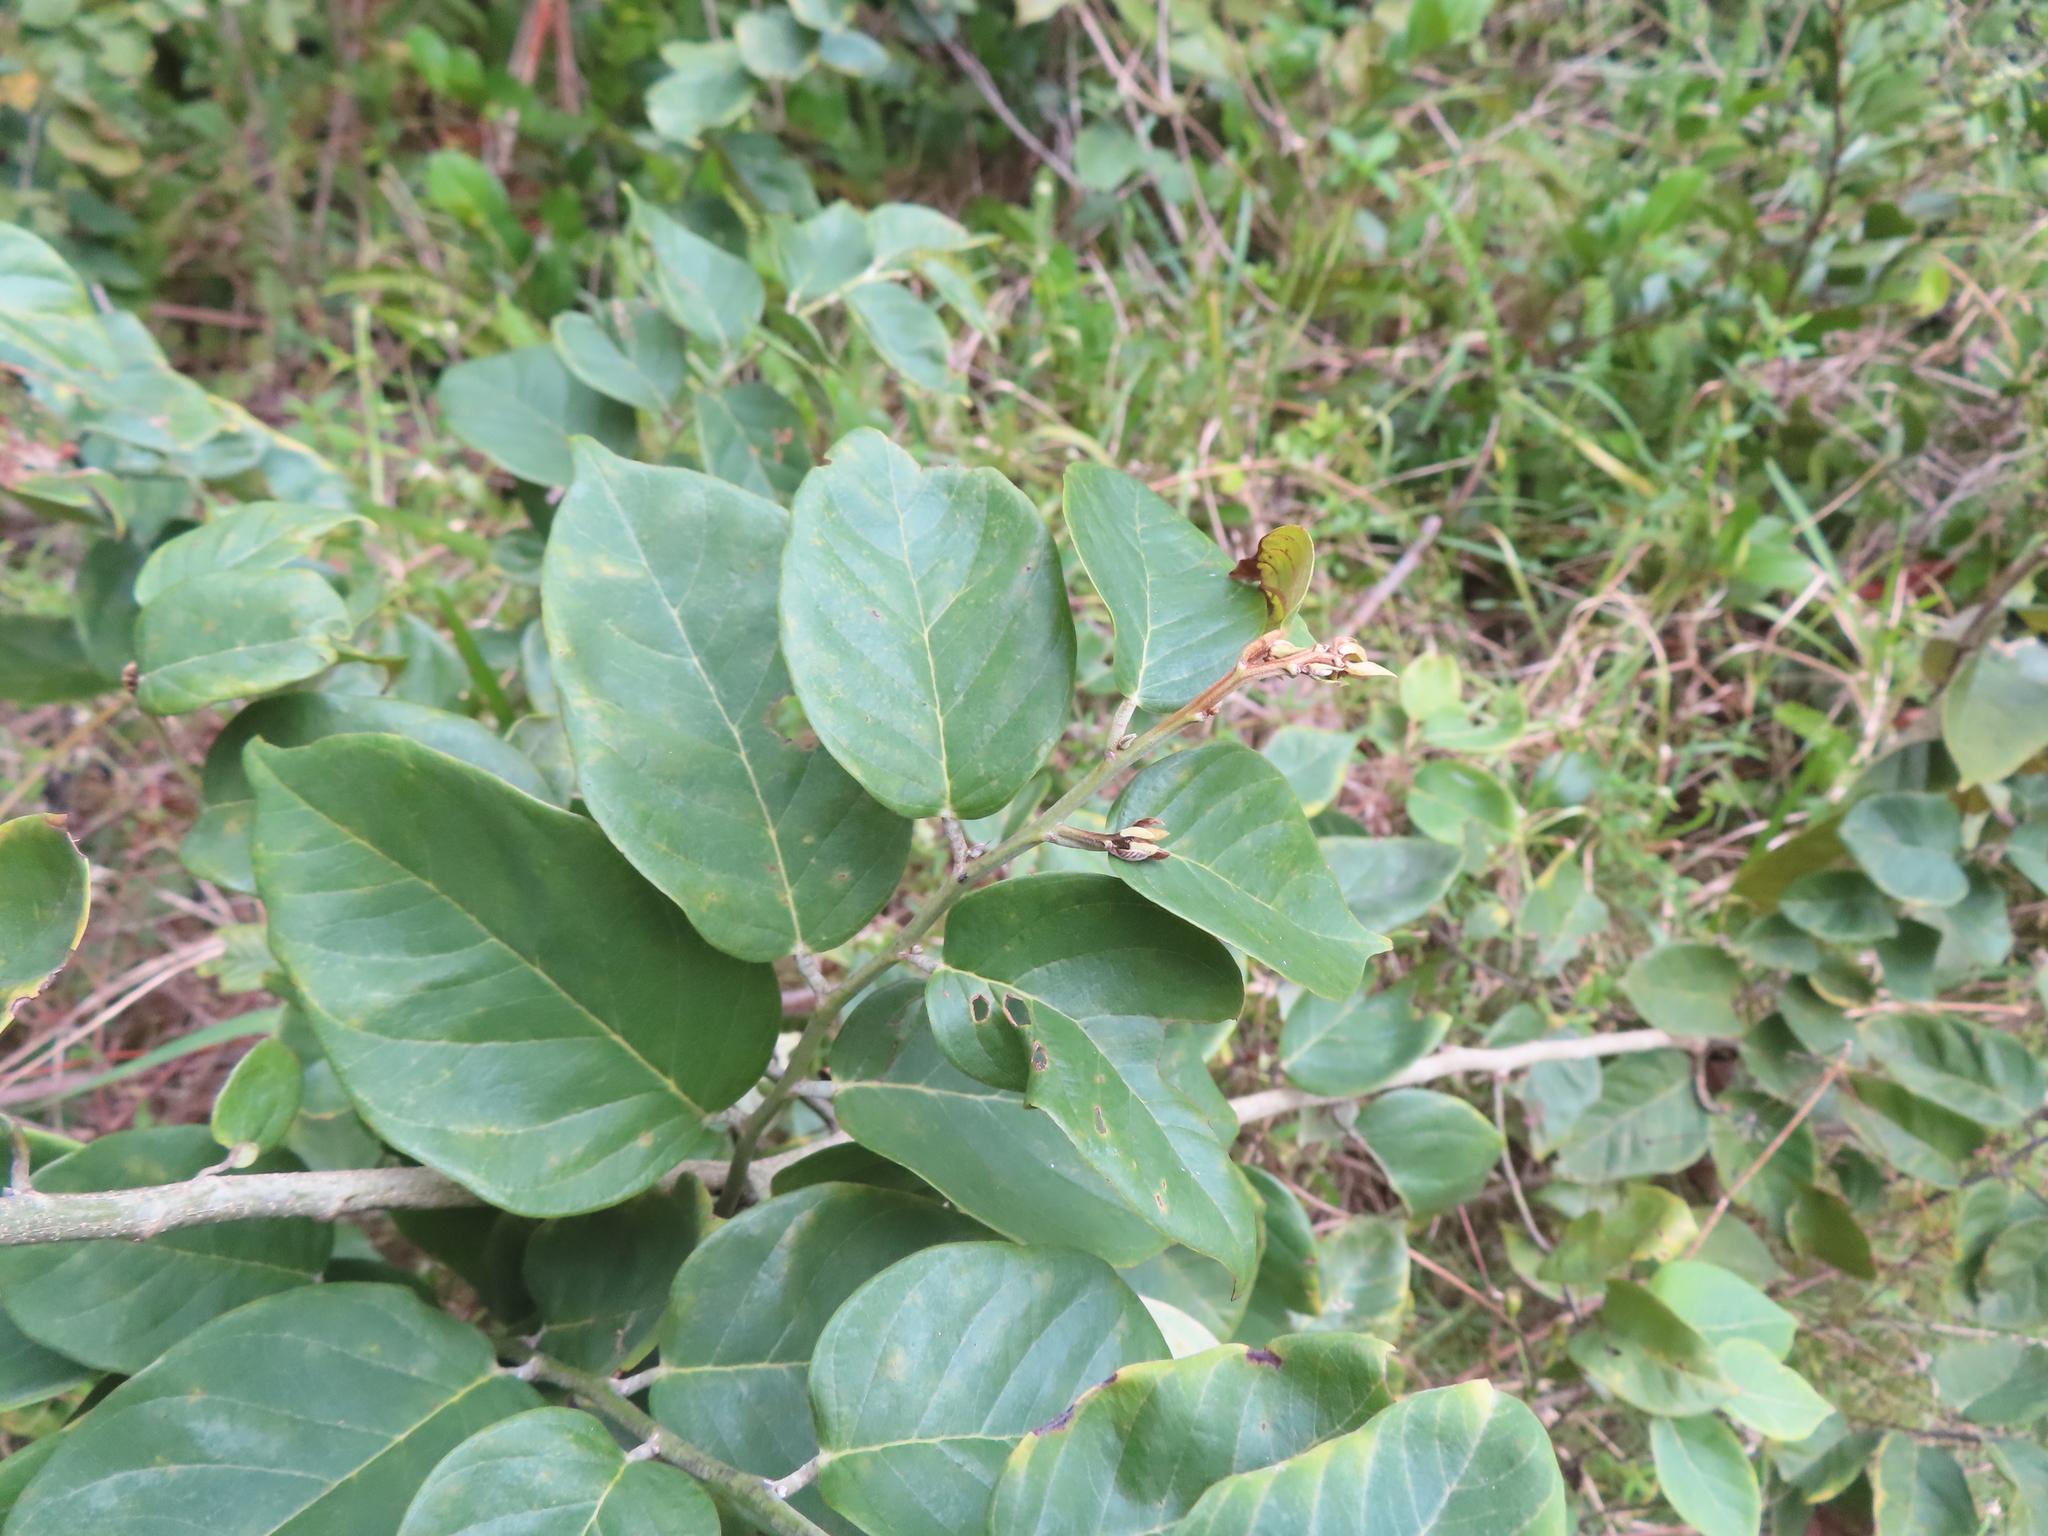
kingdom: Plantae
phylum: Tracheophyta
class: Magnoliopsida
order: Fabales
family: Fabaceae
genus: Dalbergia
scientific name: Dalbergia ecastaphyllum
